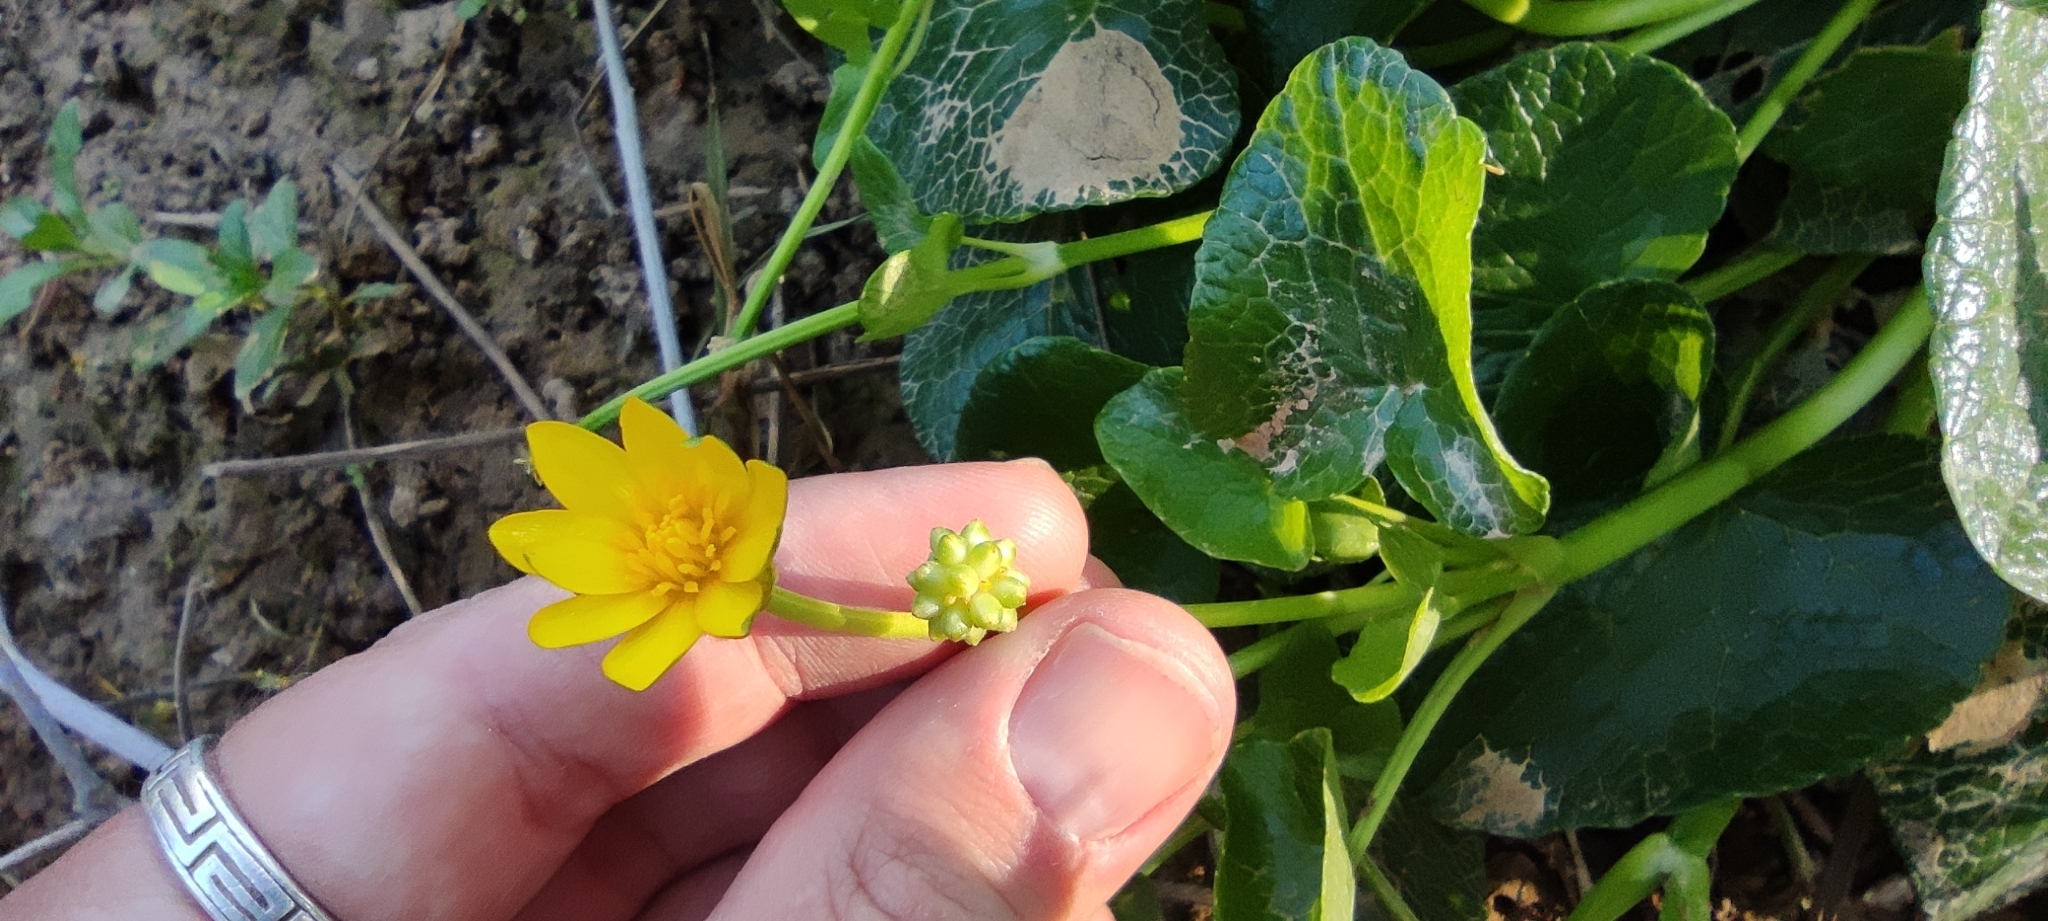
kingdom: Plantae
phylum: Tracheophyta
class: Magnoliopsida
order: Ranunculales
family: Ranunculaceae
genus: Ficaria
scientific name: Ficaria verna
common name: Lesser celandine
